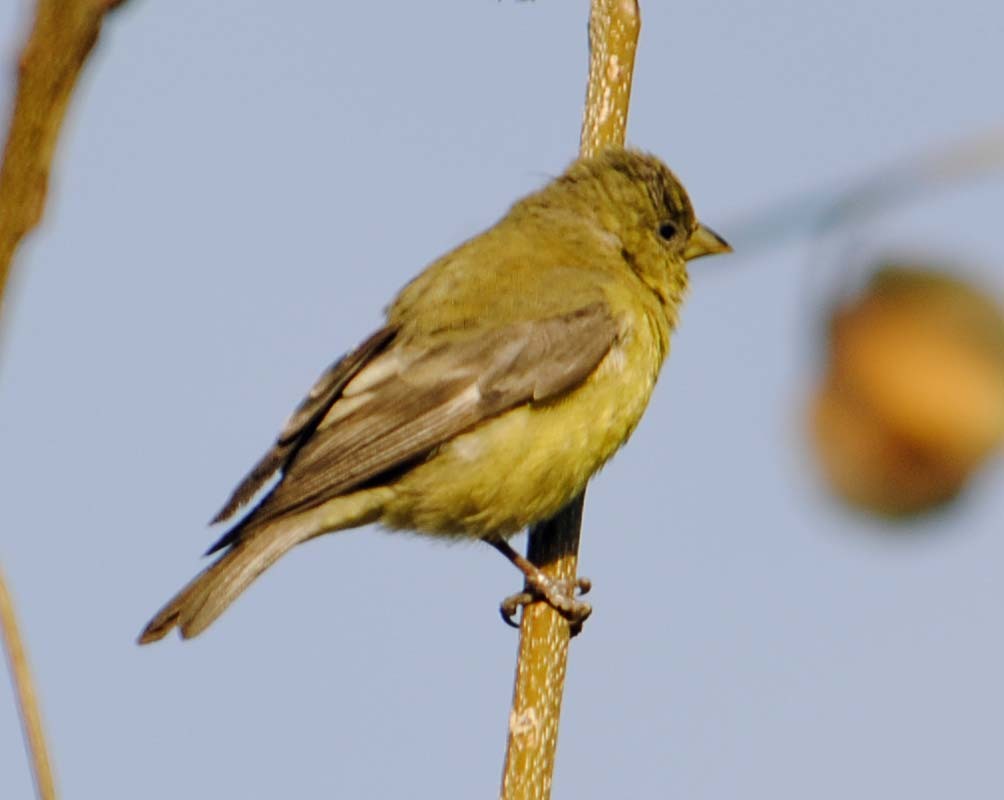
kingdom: Animalia
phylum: Chordata
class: Aves
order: Passeriformes
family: Fringillidae
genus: Spinus
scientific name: Spinus psaltria
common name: Lesser goldfinch
